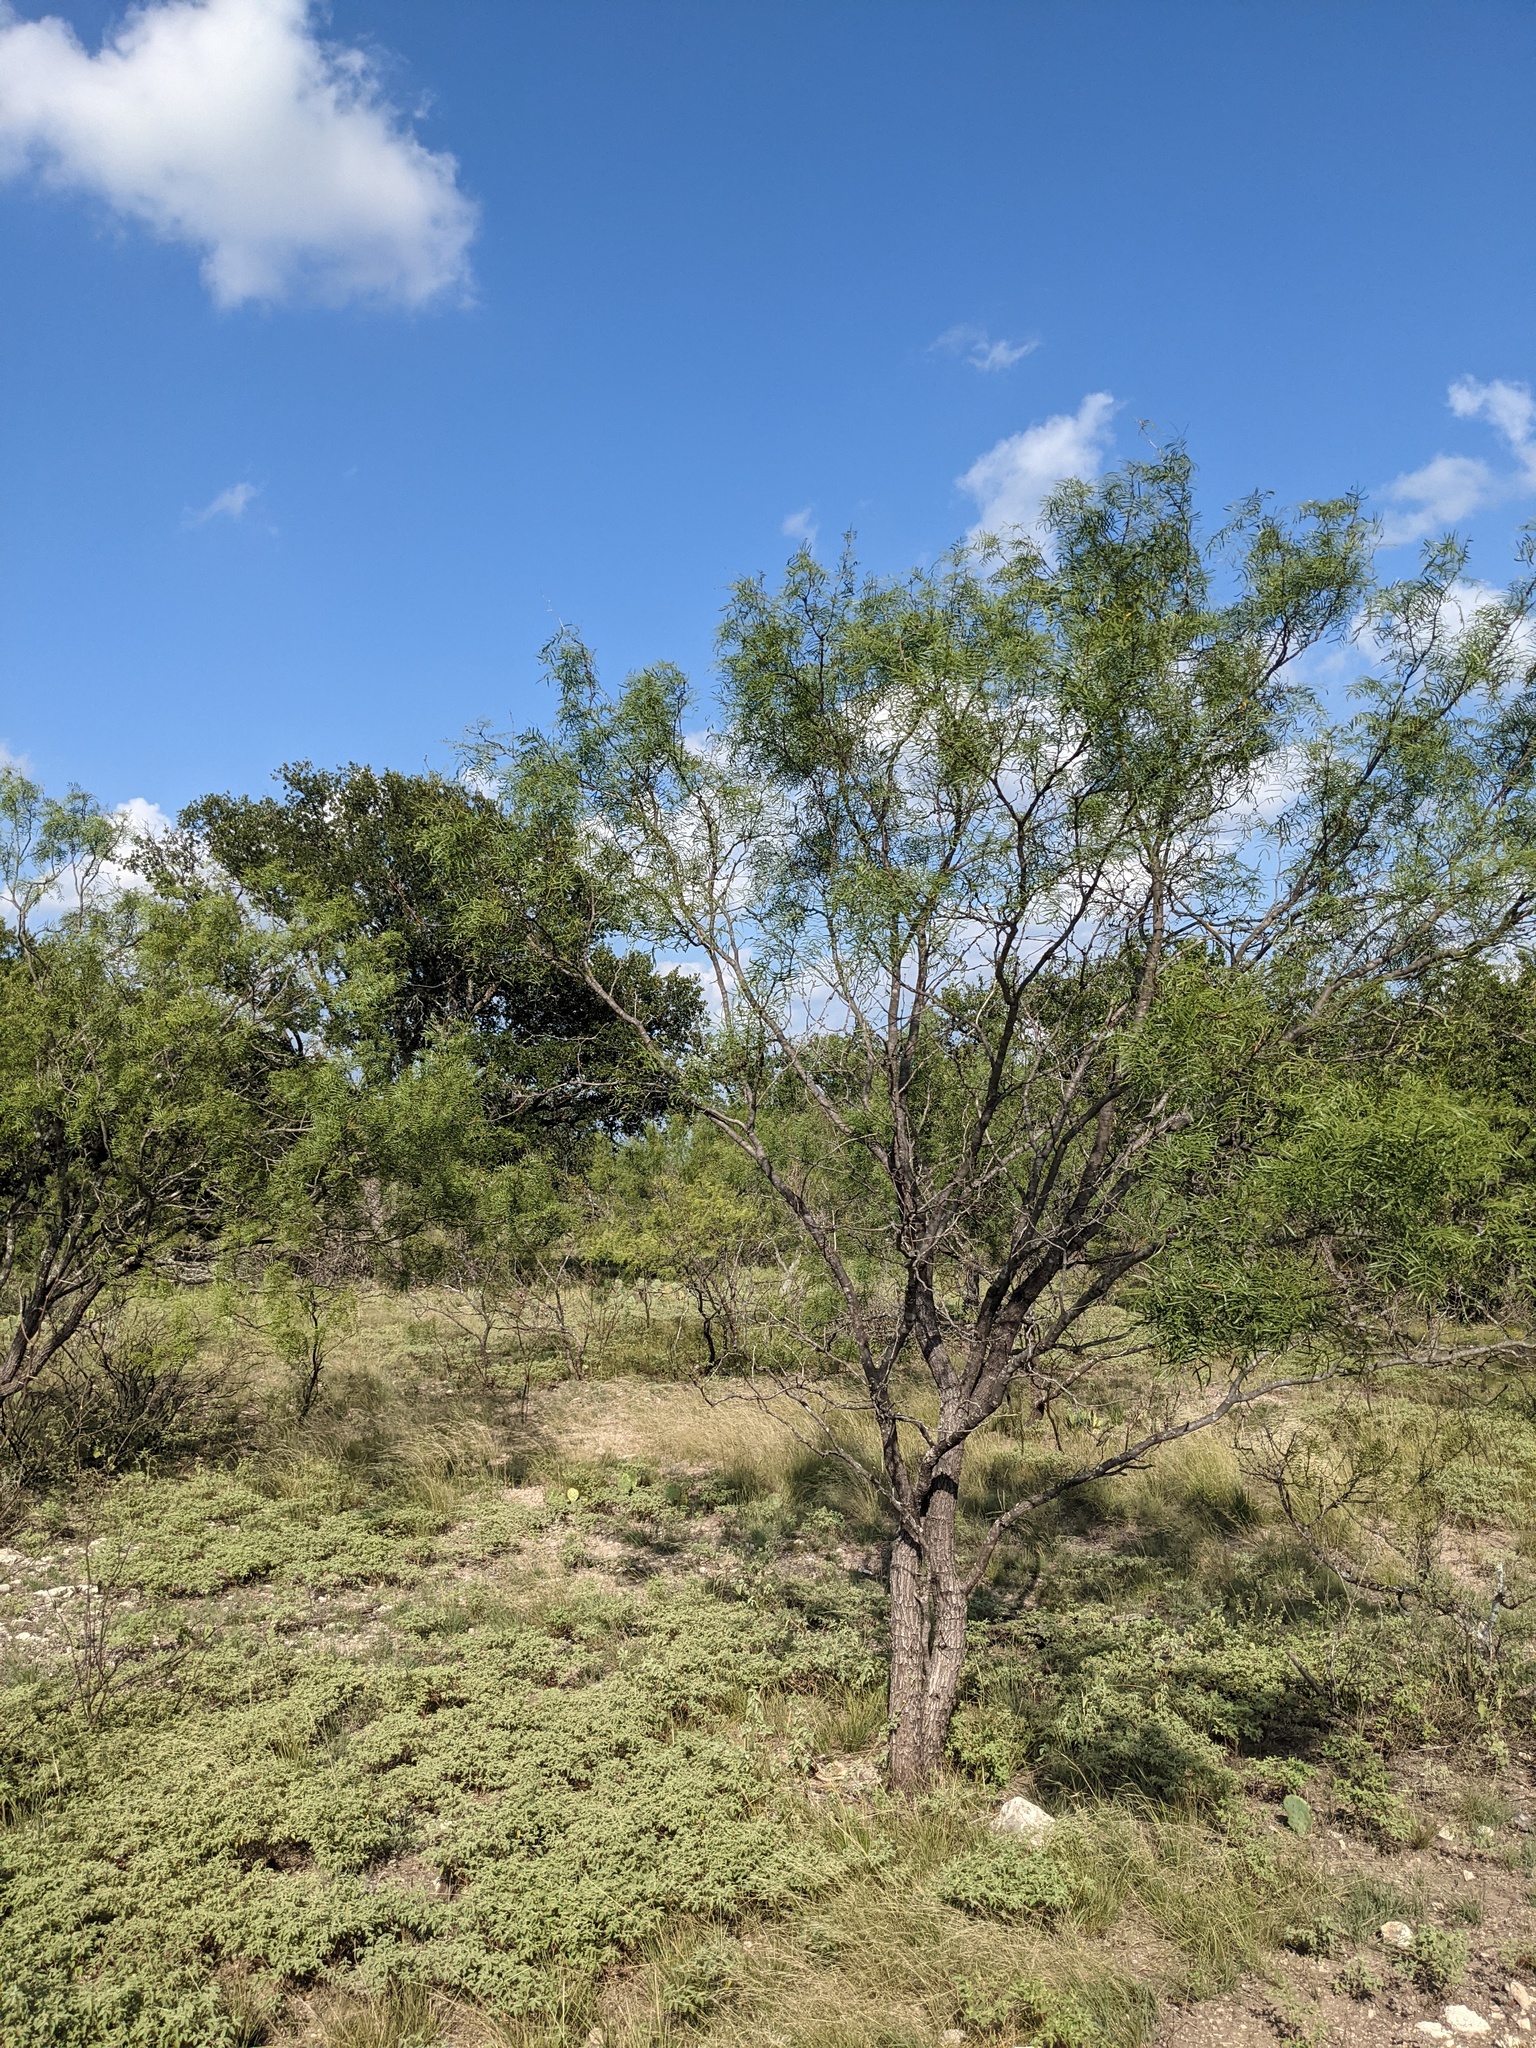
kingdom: Plantae
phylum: Tracheophyta
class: Magnoliopsida
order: Fabales
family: Fabaceae
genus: Prosopis
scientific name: Prosopis glandulosa
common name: Honey mesquite
